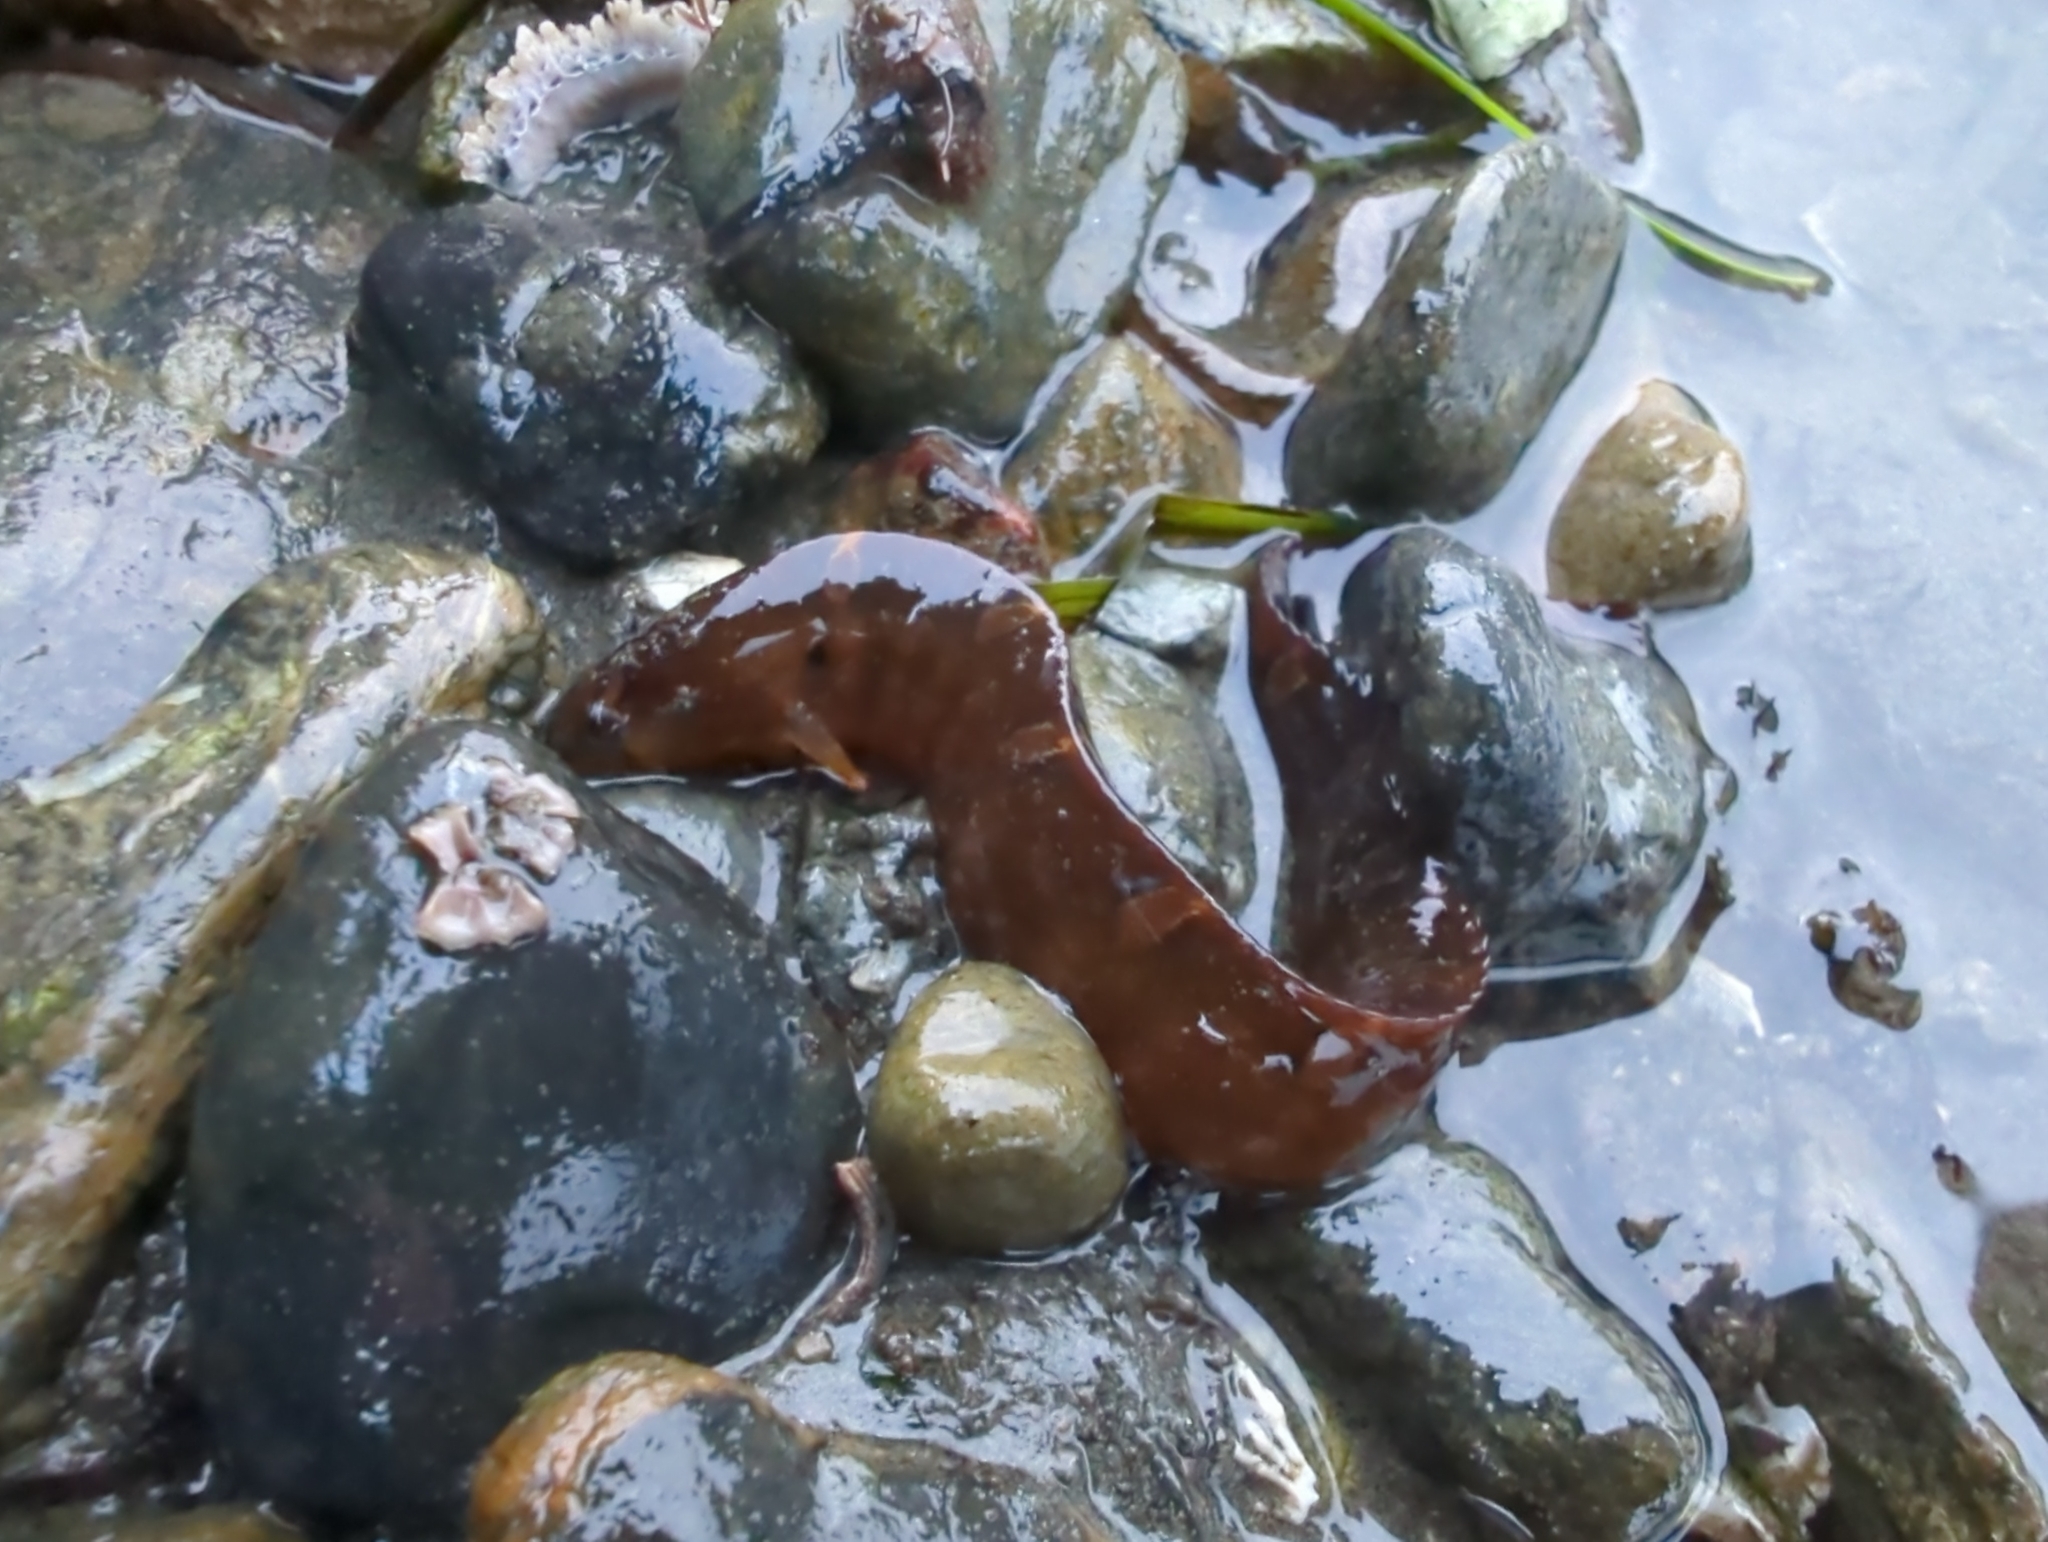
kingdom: Animalia
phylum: Chordata
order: Perciformes
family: Pholidae
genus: Pholis
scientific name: Pholis laeta
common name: Crescent gunnel
